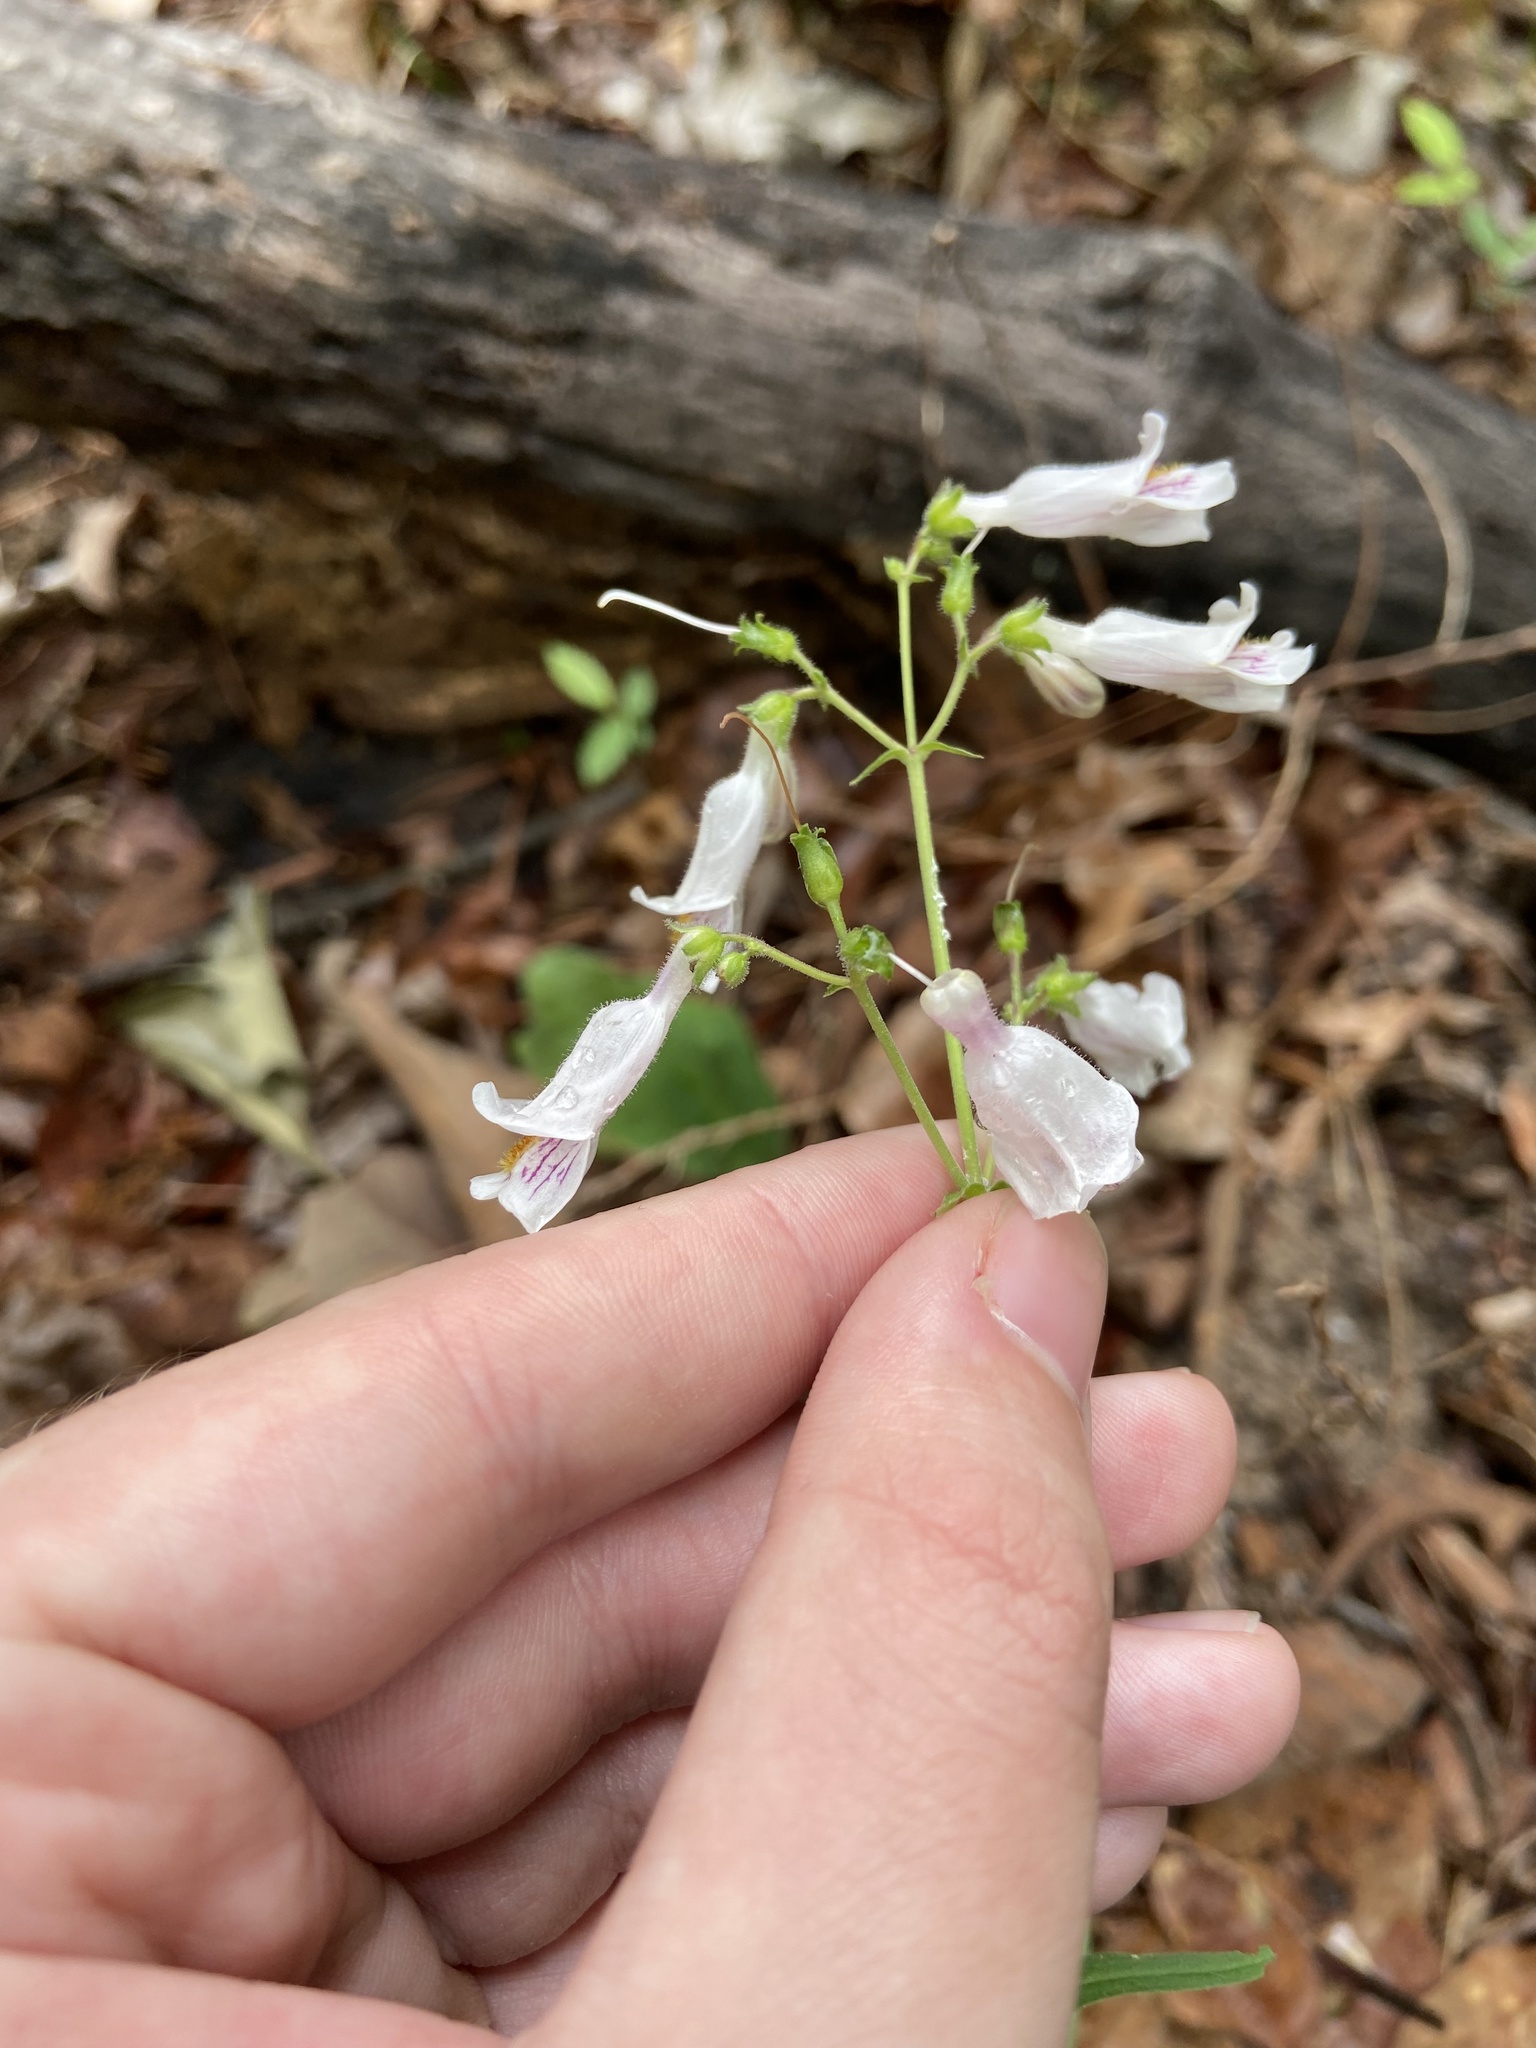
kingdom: Plantae
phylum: Tracheophyta
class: Magnoliopsida
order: Lamiales
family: Plantaginaceae
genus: Penstemon
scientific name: Penstemon laxiflorus
